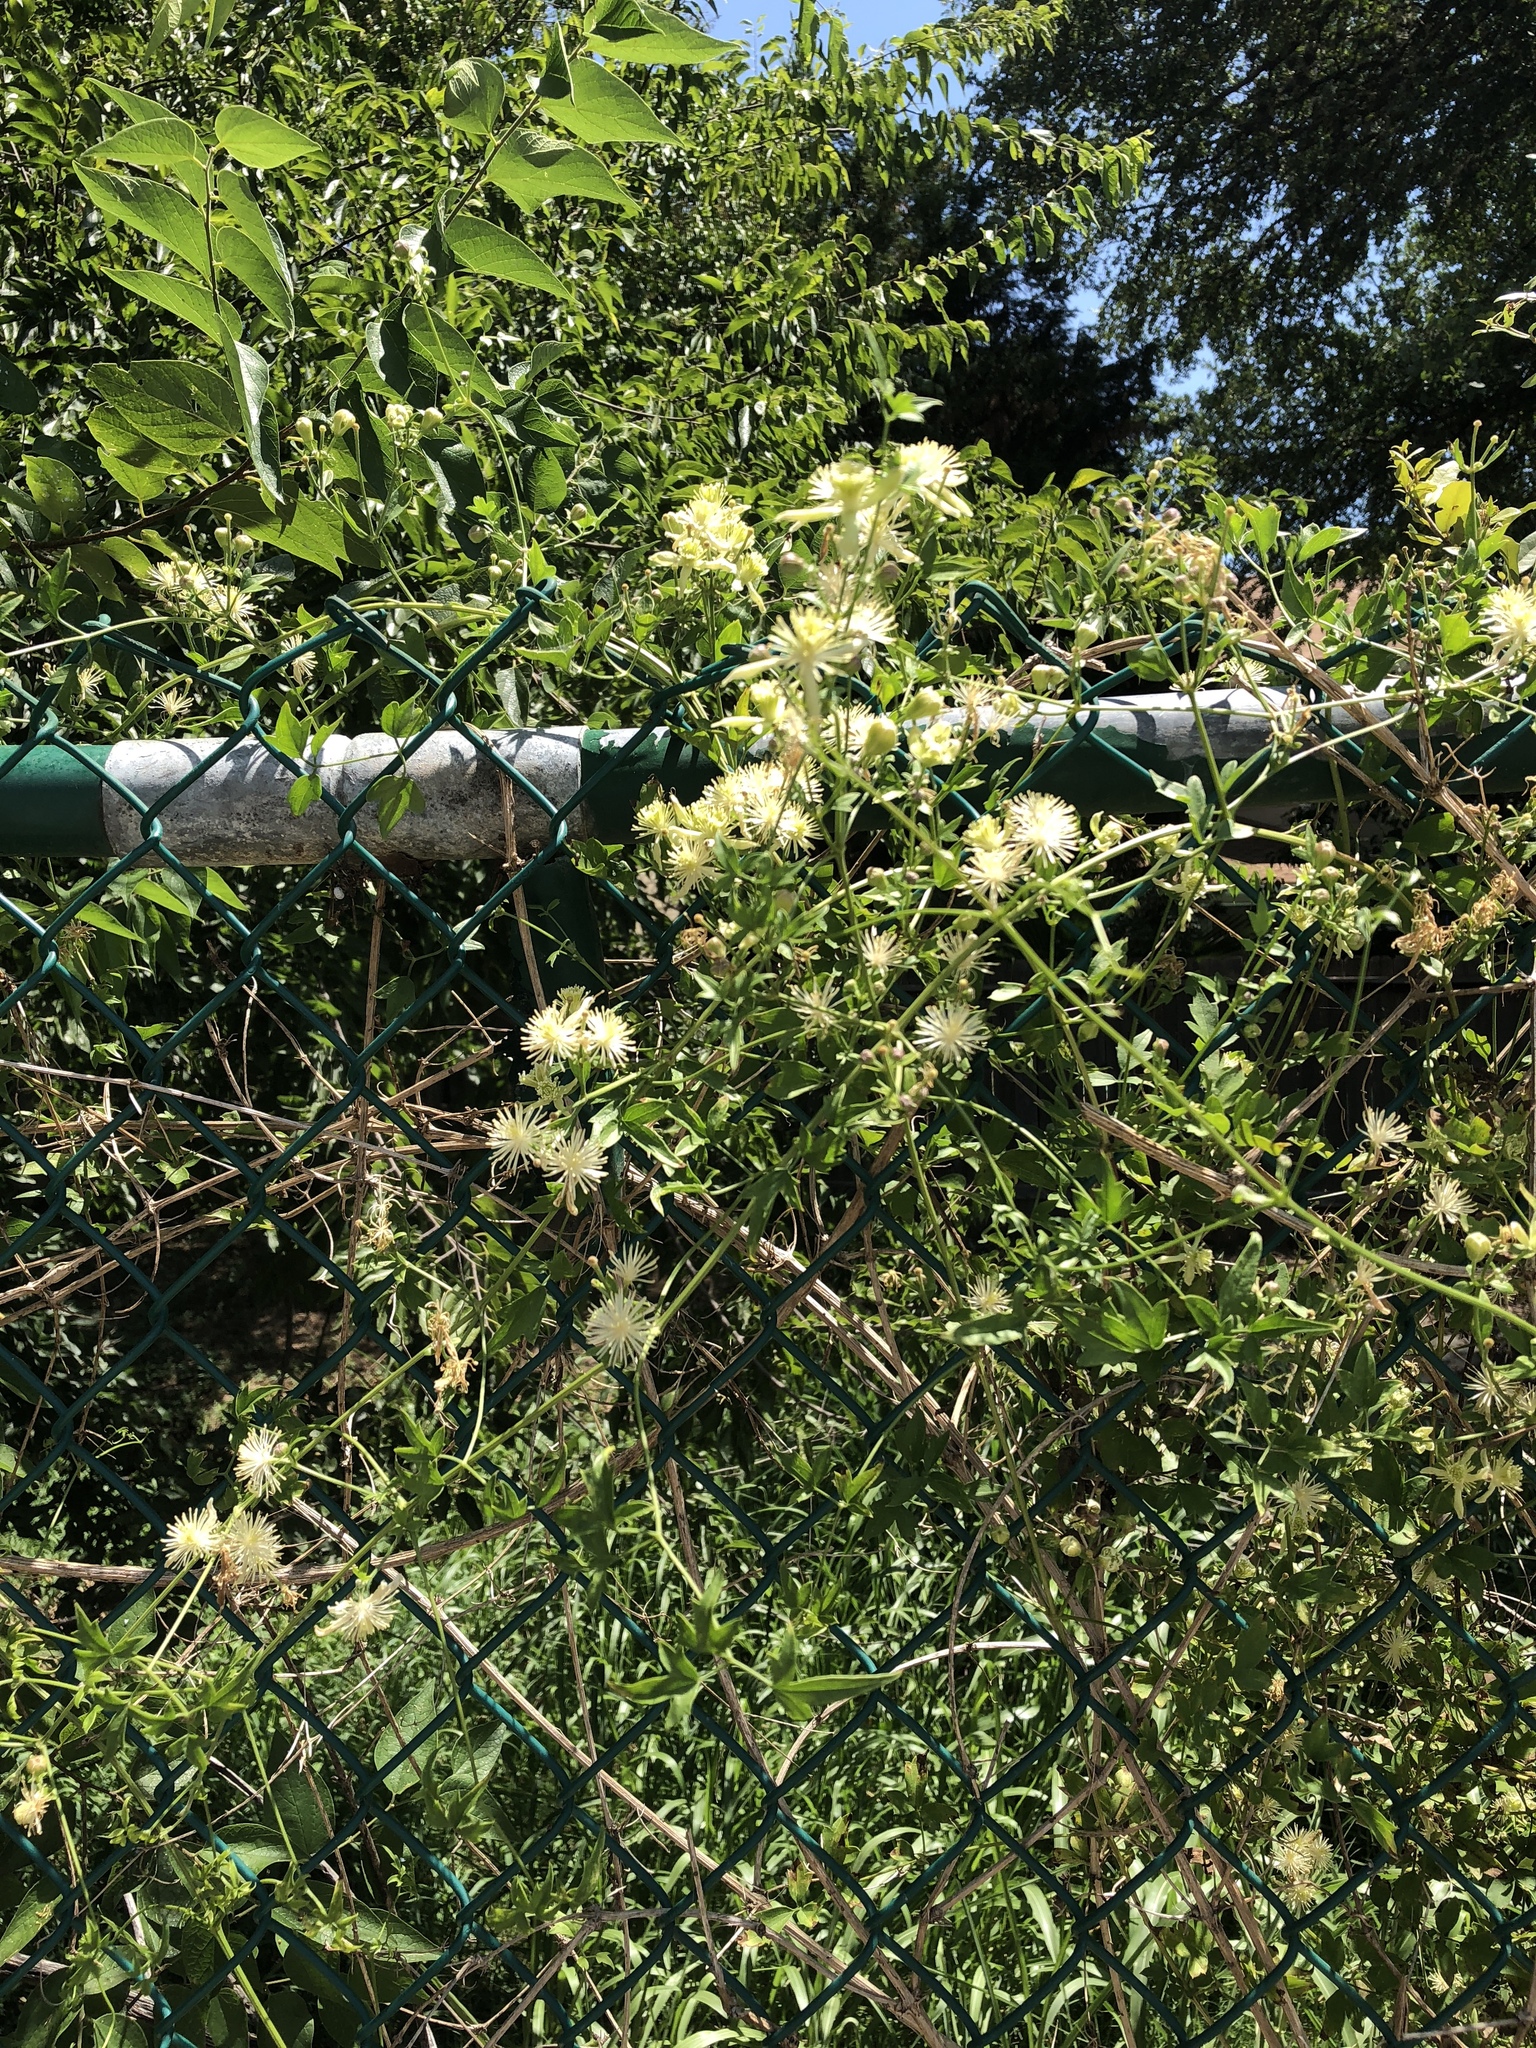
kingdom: Plantae
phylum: Tracheophyta
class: Magnoliopsida
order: Ranunculales
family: Ranunculaceae
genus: Clematis
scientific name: Clematis drummondii
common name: Texas virgin's bower
